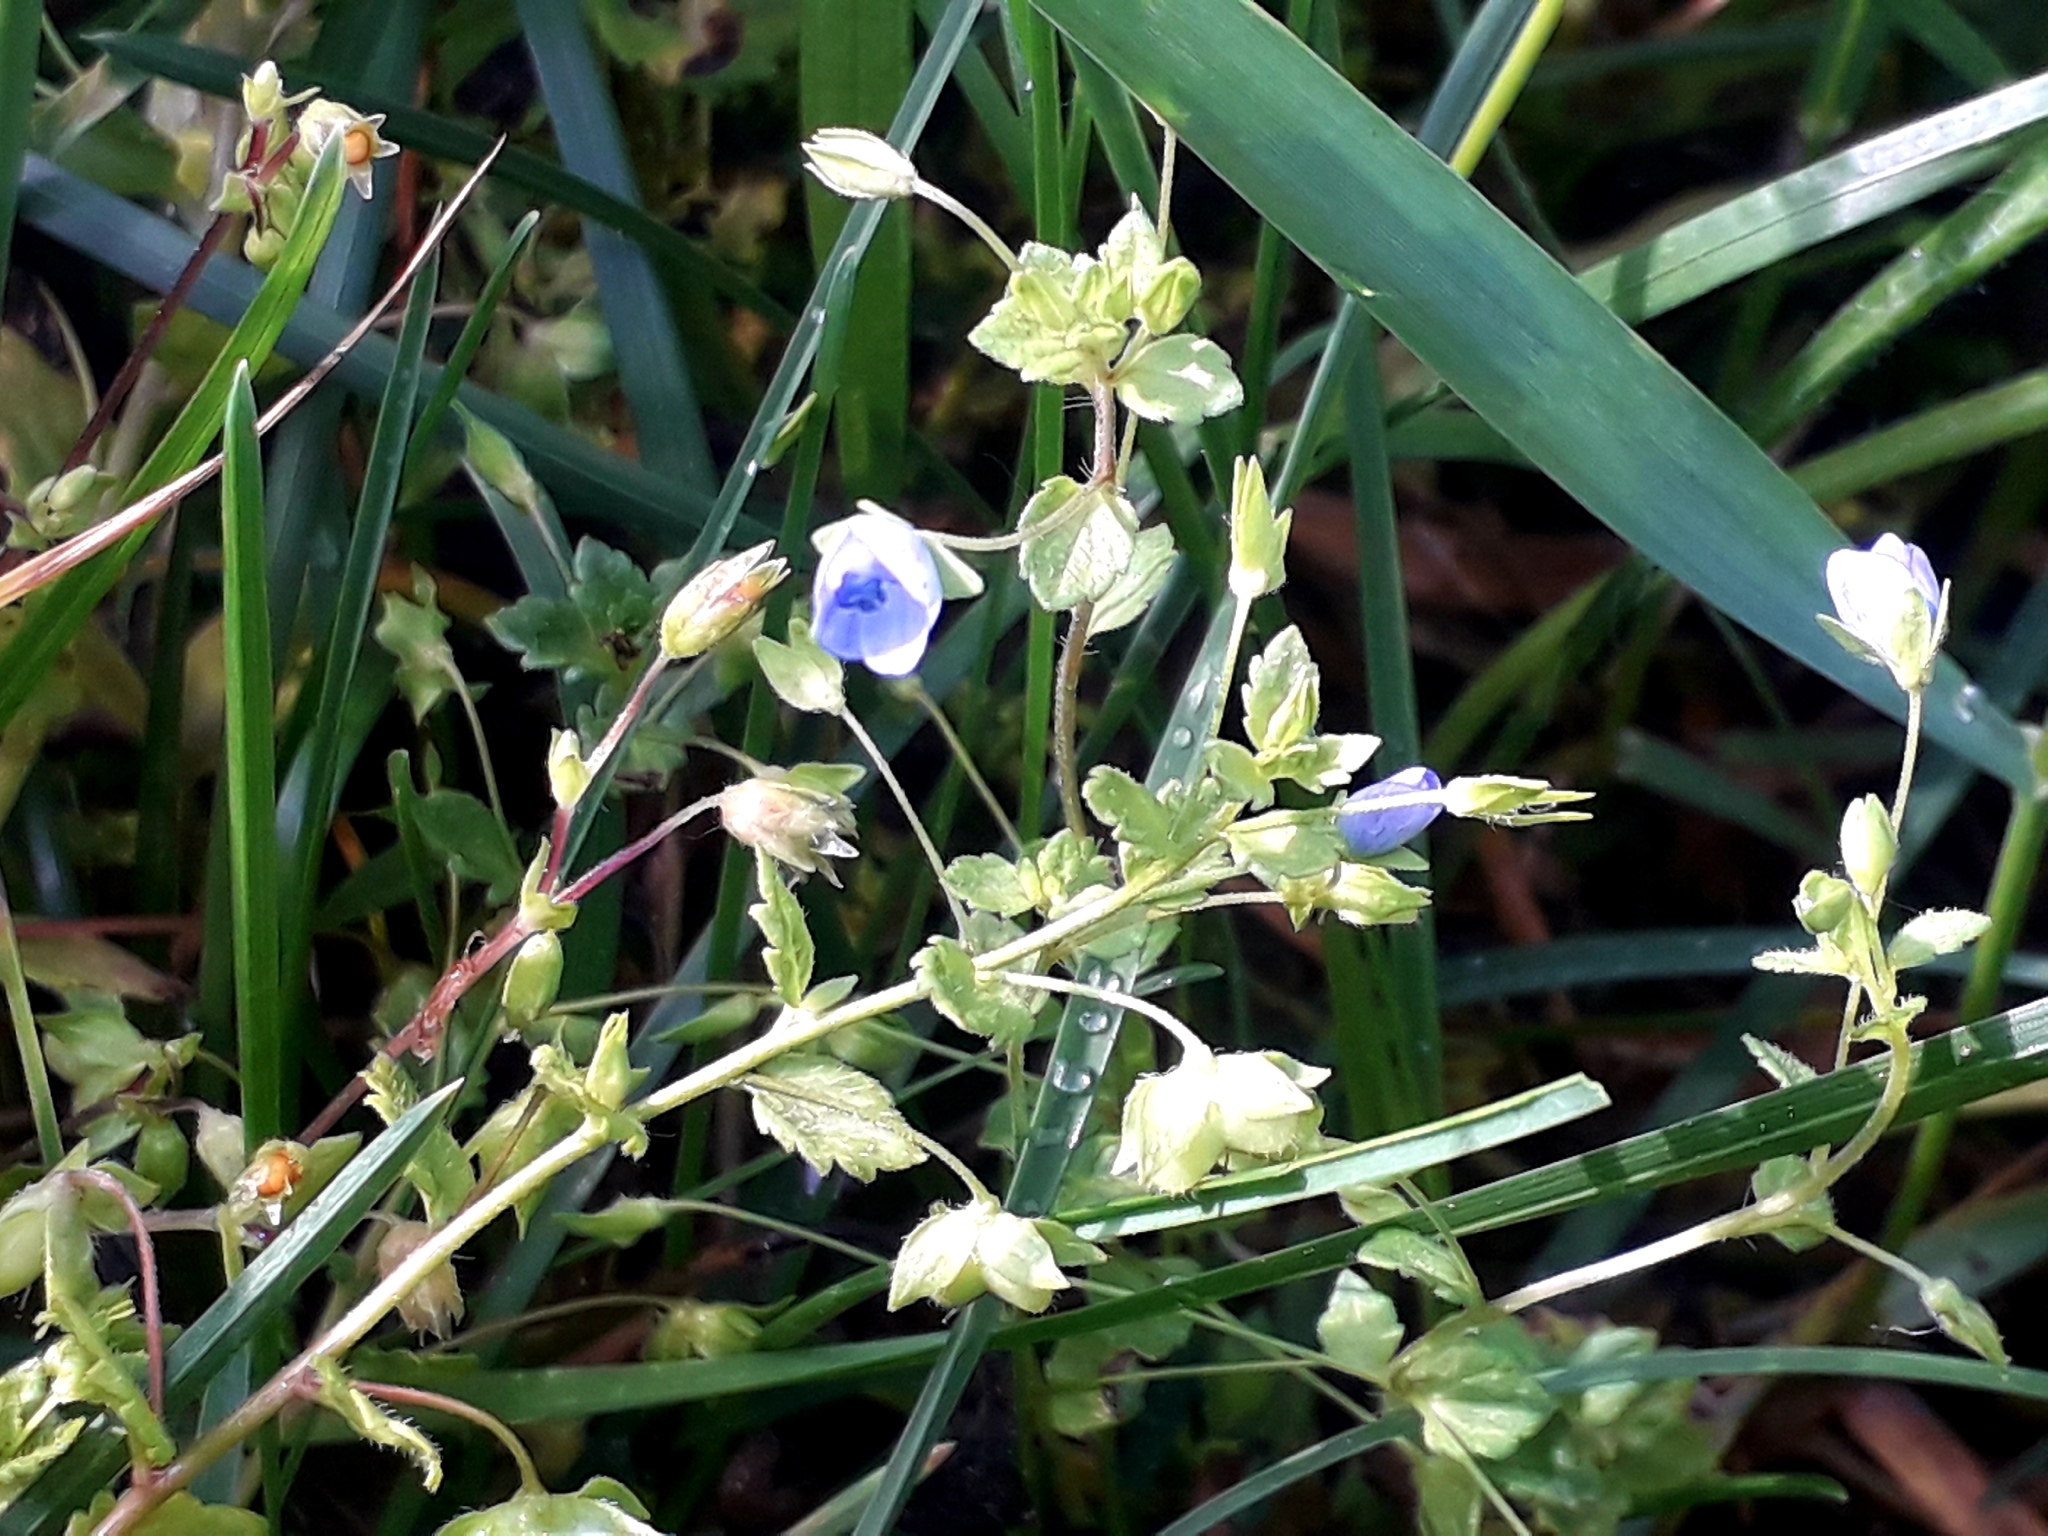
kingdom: Plantae
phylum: Tracheophyta
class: Magnoliopsida
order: Lamiales
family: Plantaginaceae
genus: Veronica
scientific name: Veronica persica
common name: Common field-speedwell
